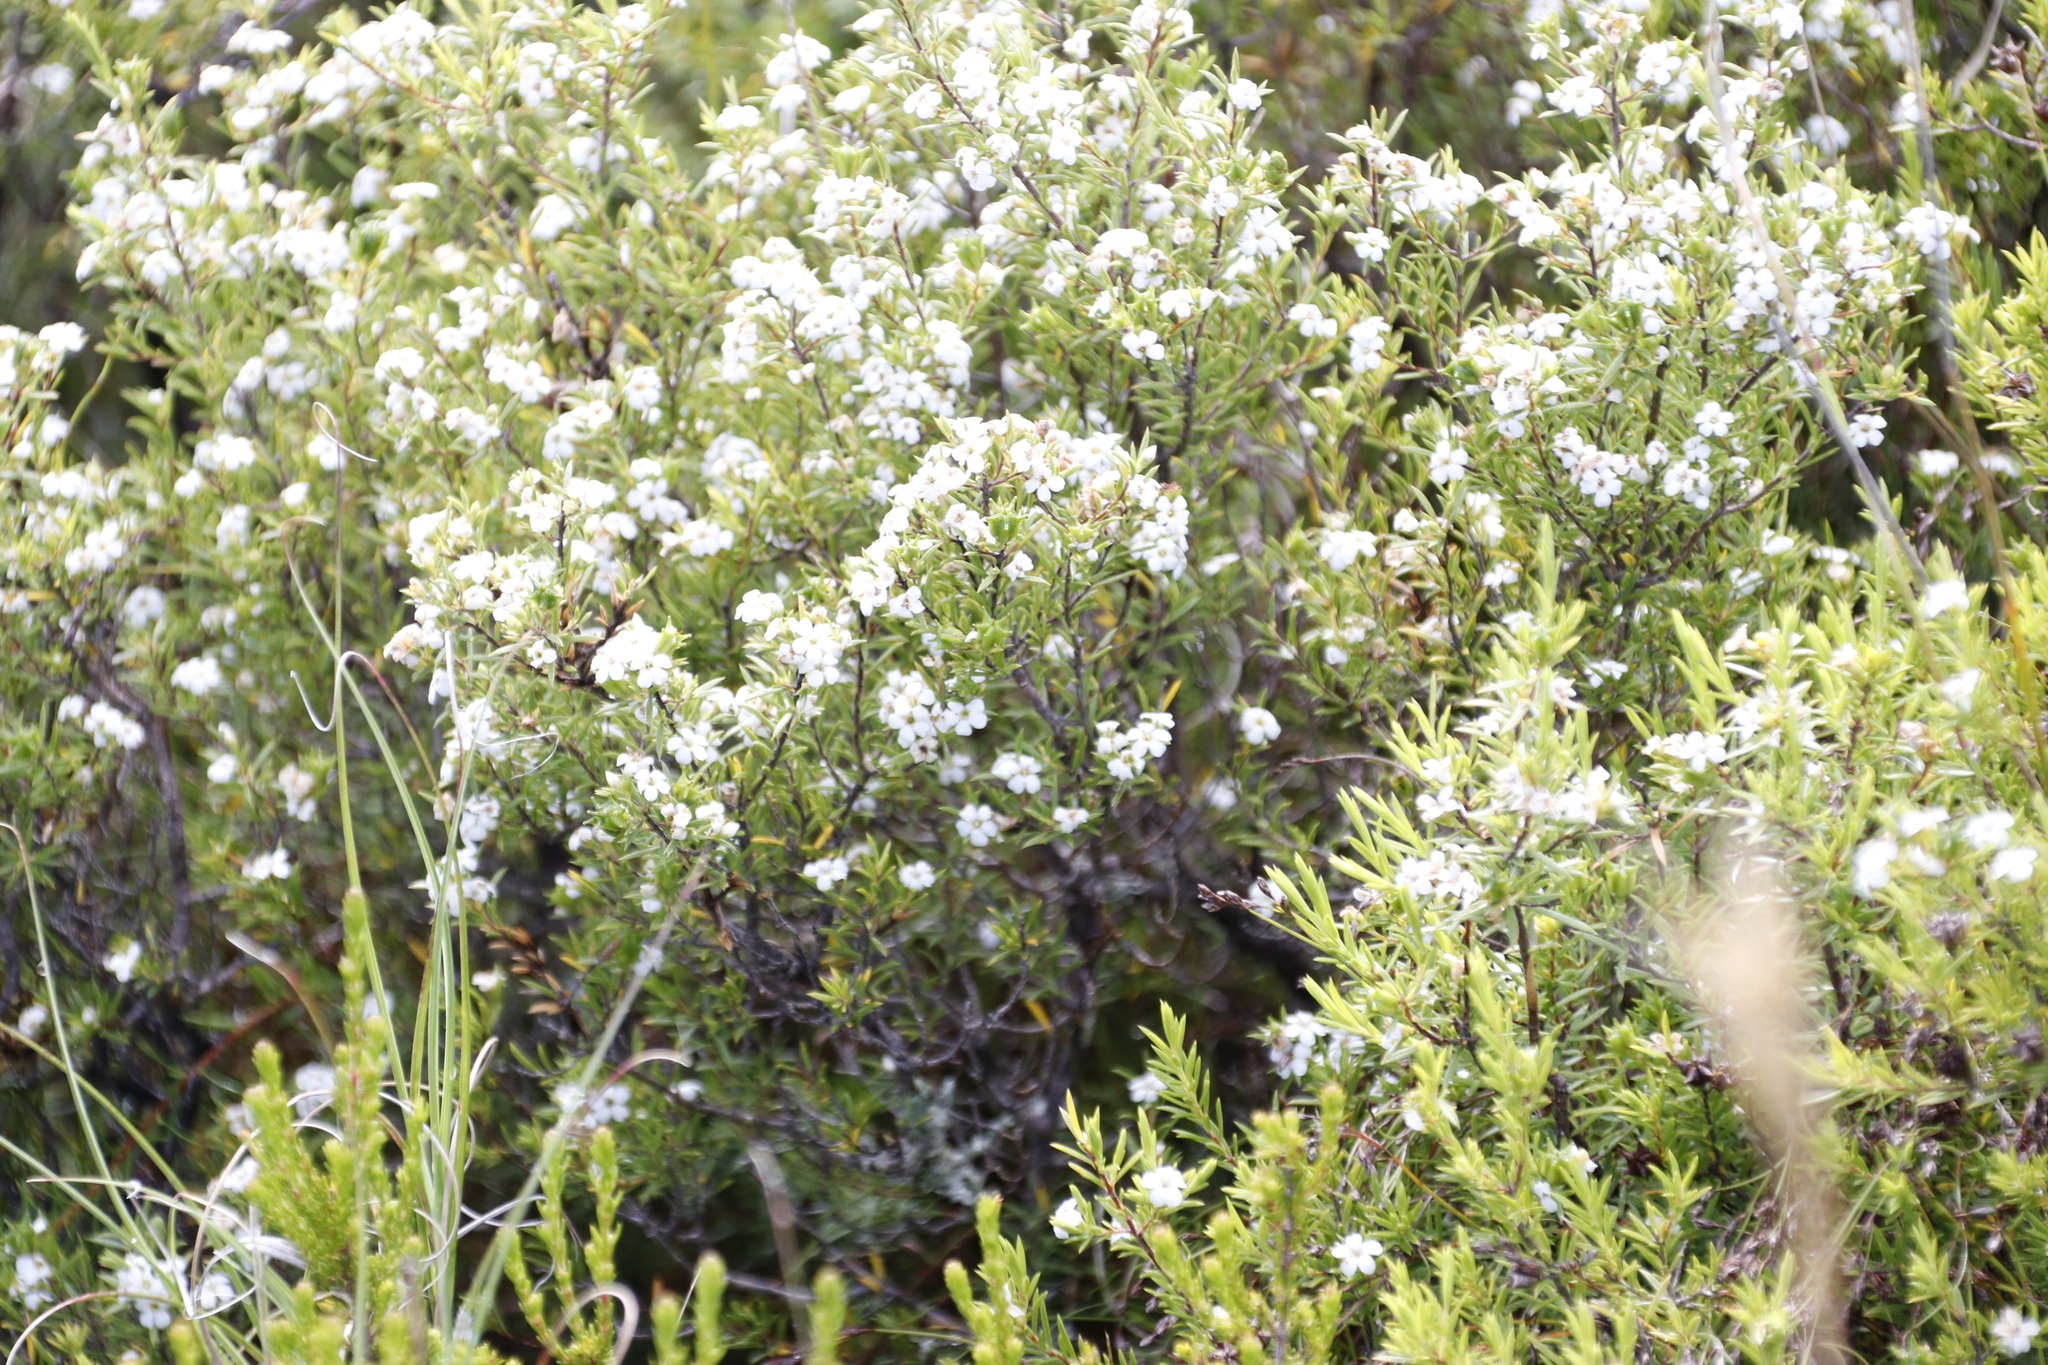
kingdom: Plantae
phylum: Tracheophyta
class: Magnoliopsida
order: Sapindales
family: Rutaceae
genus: Coleonema
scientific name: Coleonema album
